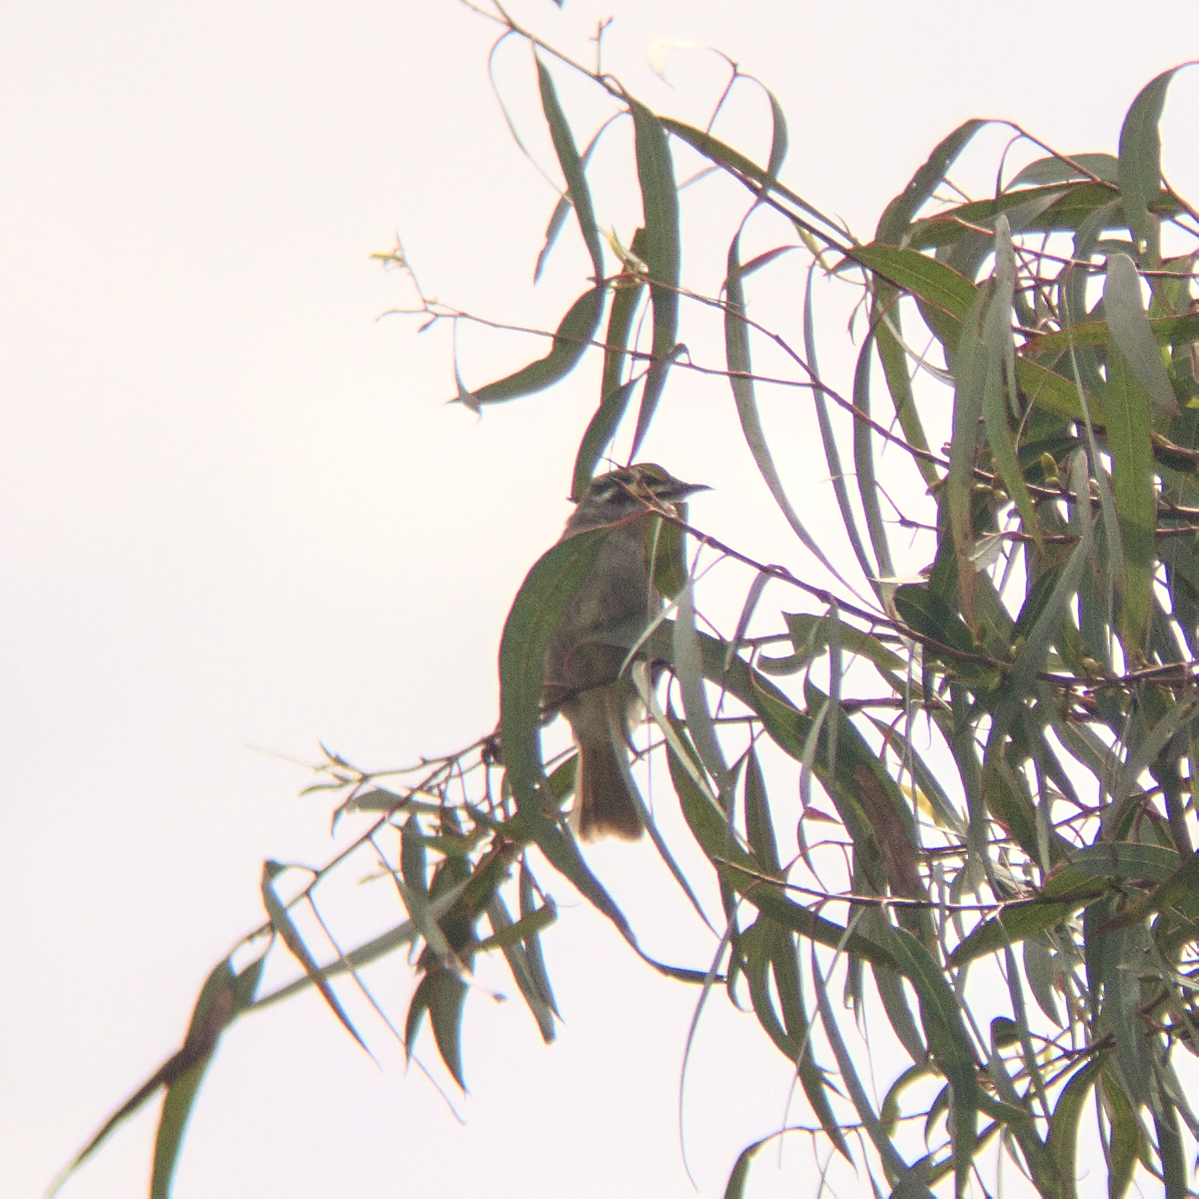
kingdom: Animalia
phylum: Chordata
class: Aves
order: Passeriformes
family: Meliphagidae
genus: Caligavis
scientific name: Caligavis chrysops
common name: Yellow-faced honeyeater
